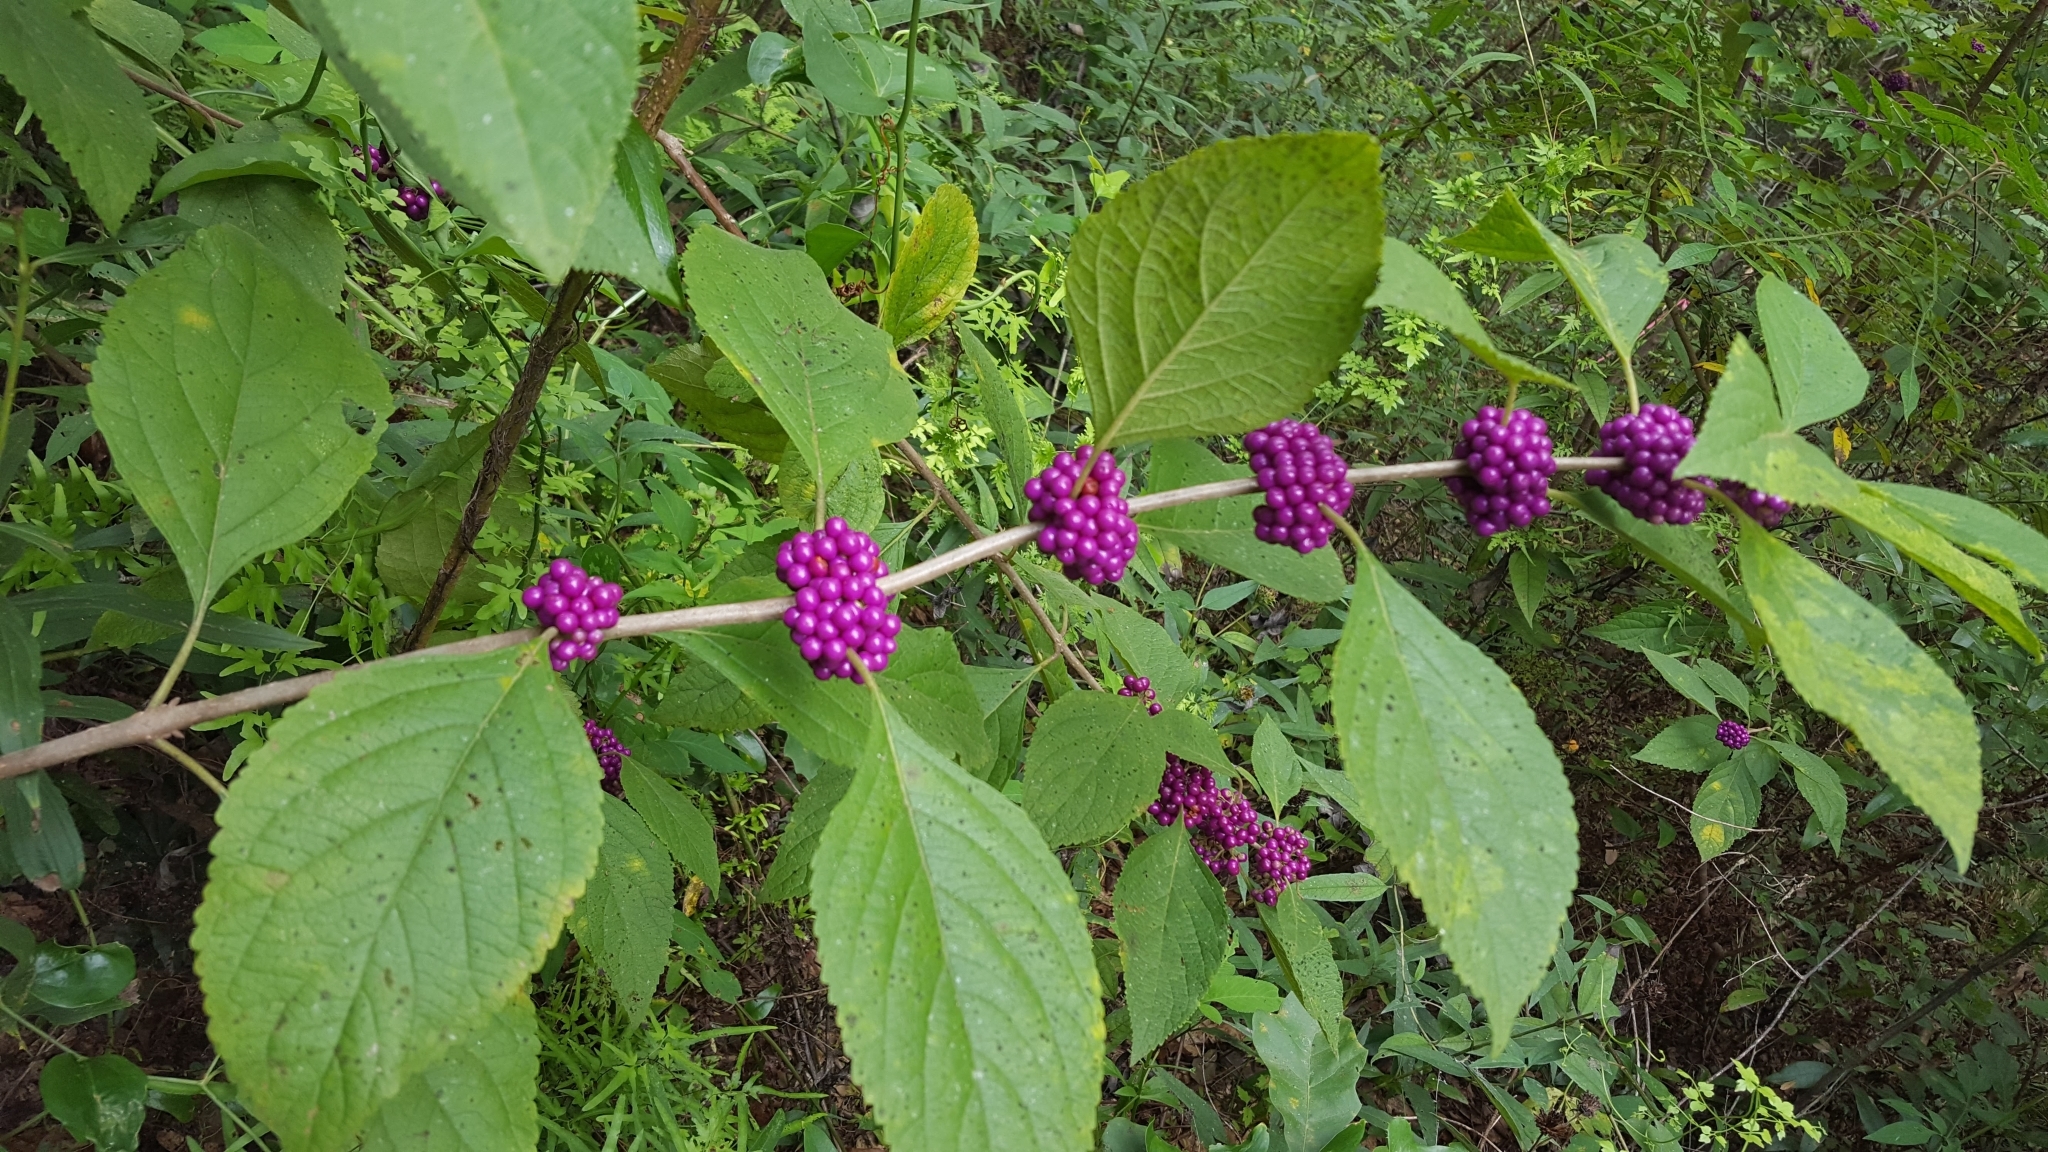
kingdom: Plantae
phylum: Tracheophyta
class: Magnoliopsida
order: Lamiales
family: Lamiaceae
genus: Callicarpa
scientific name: Callicarpa americana
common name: American beautyberry
